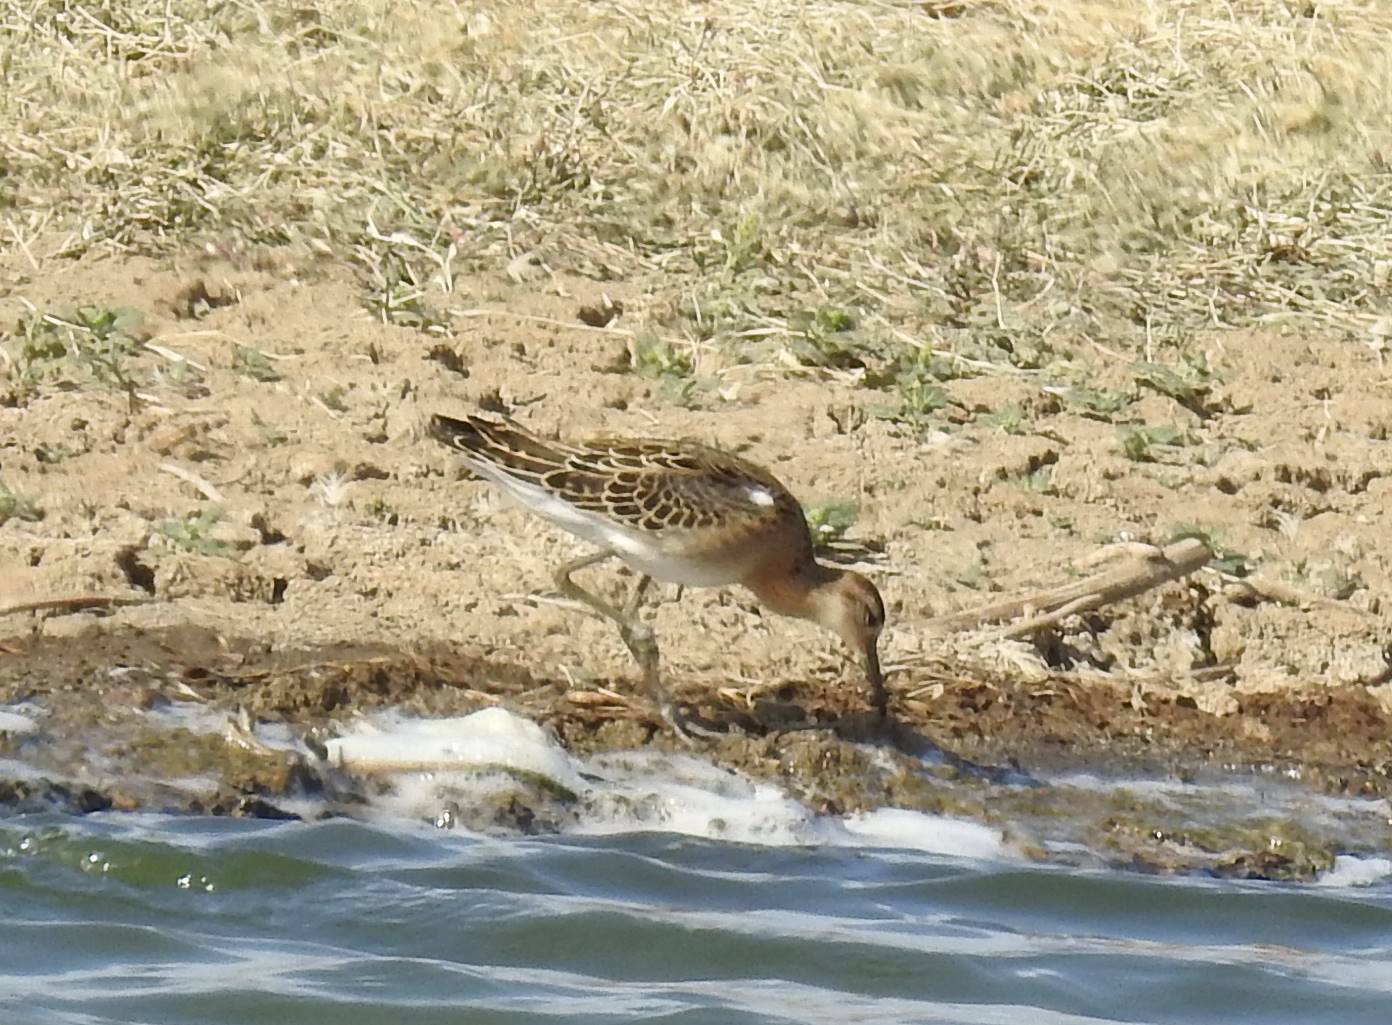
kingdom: Animalia
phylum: Chordata
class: Aves
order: Charadriiformes
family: Scolopacidae
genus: Calidris
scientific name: Calidris pugnax
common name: Ruff
